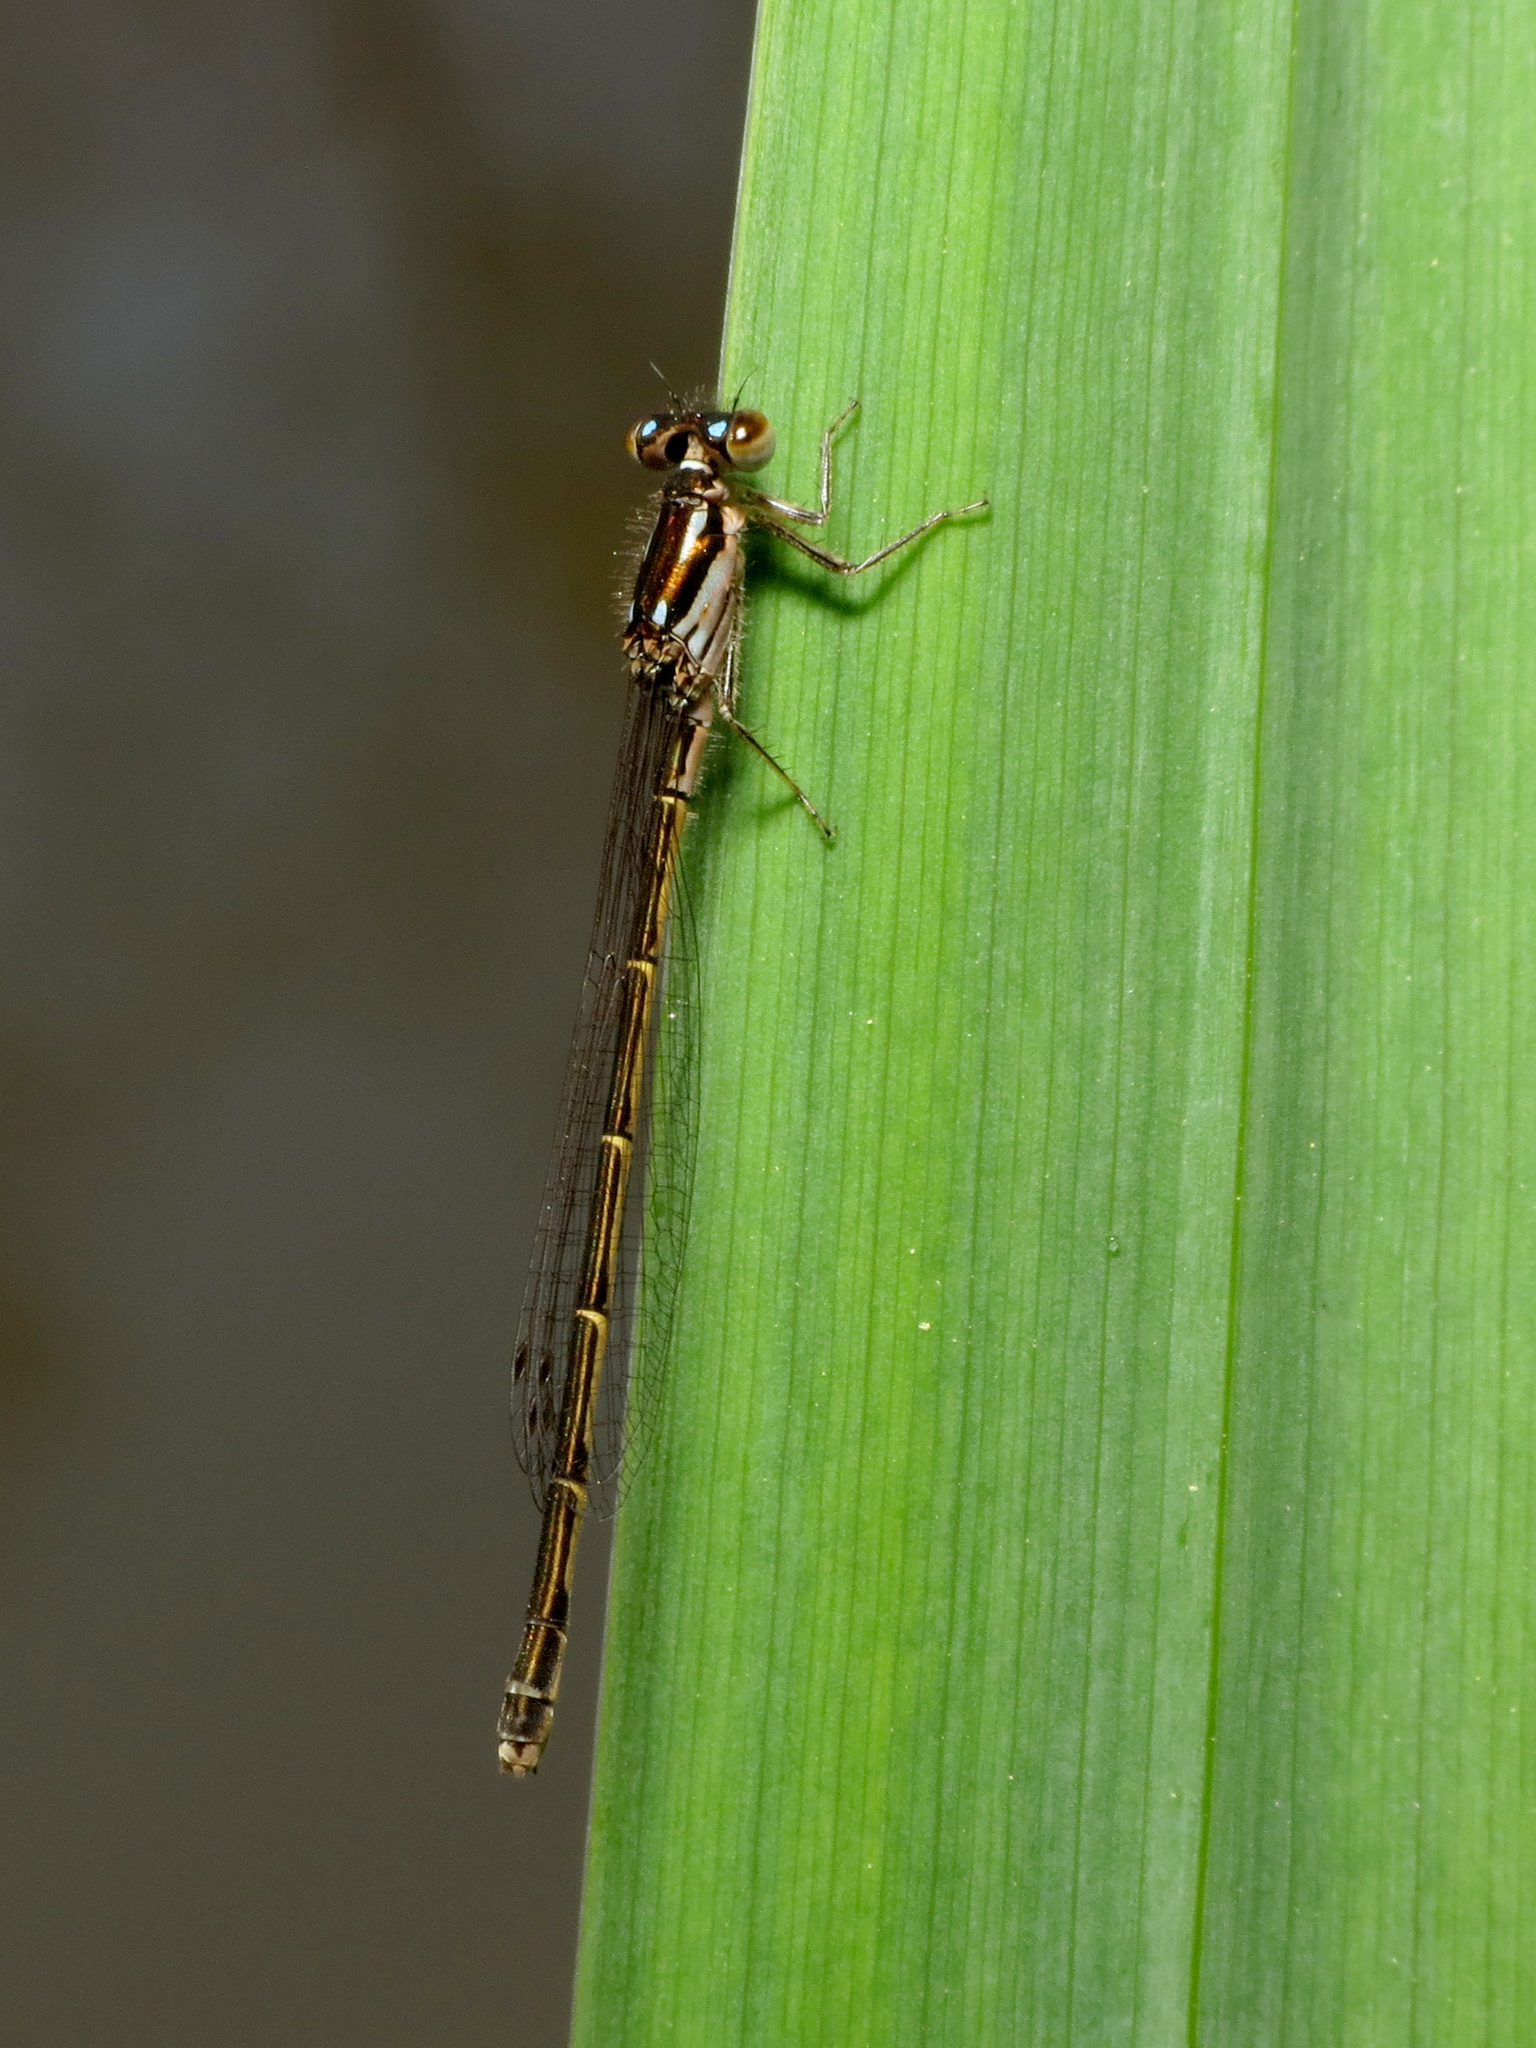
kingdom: Animalia
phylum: Arthropoda
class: Insecta
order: Odonata
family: Coenagrionidae
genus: Ischnura
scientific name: Ischnura posita
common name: Fragile forktail
